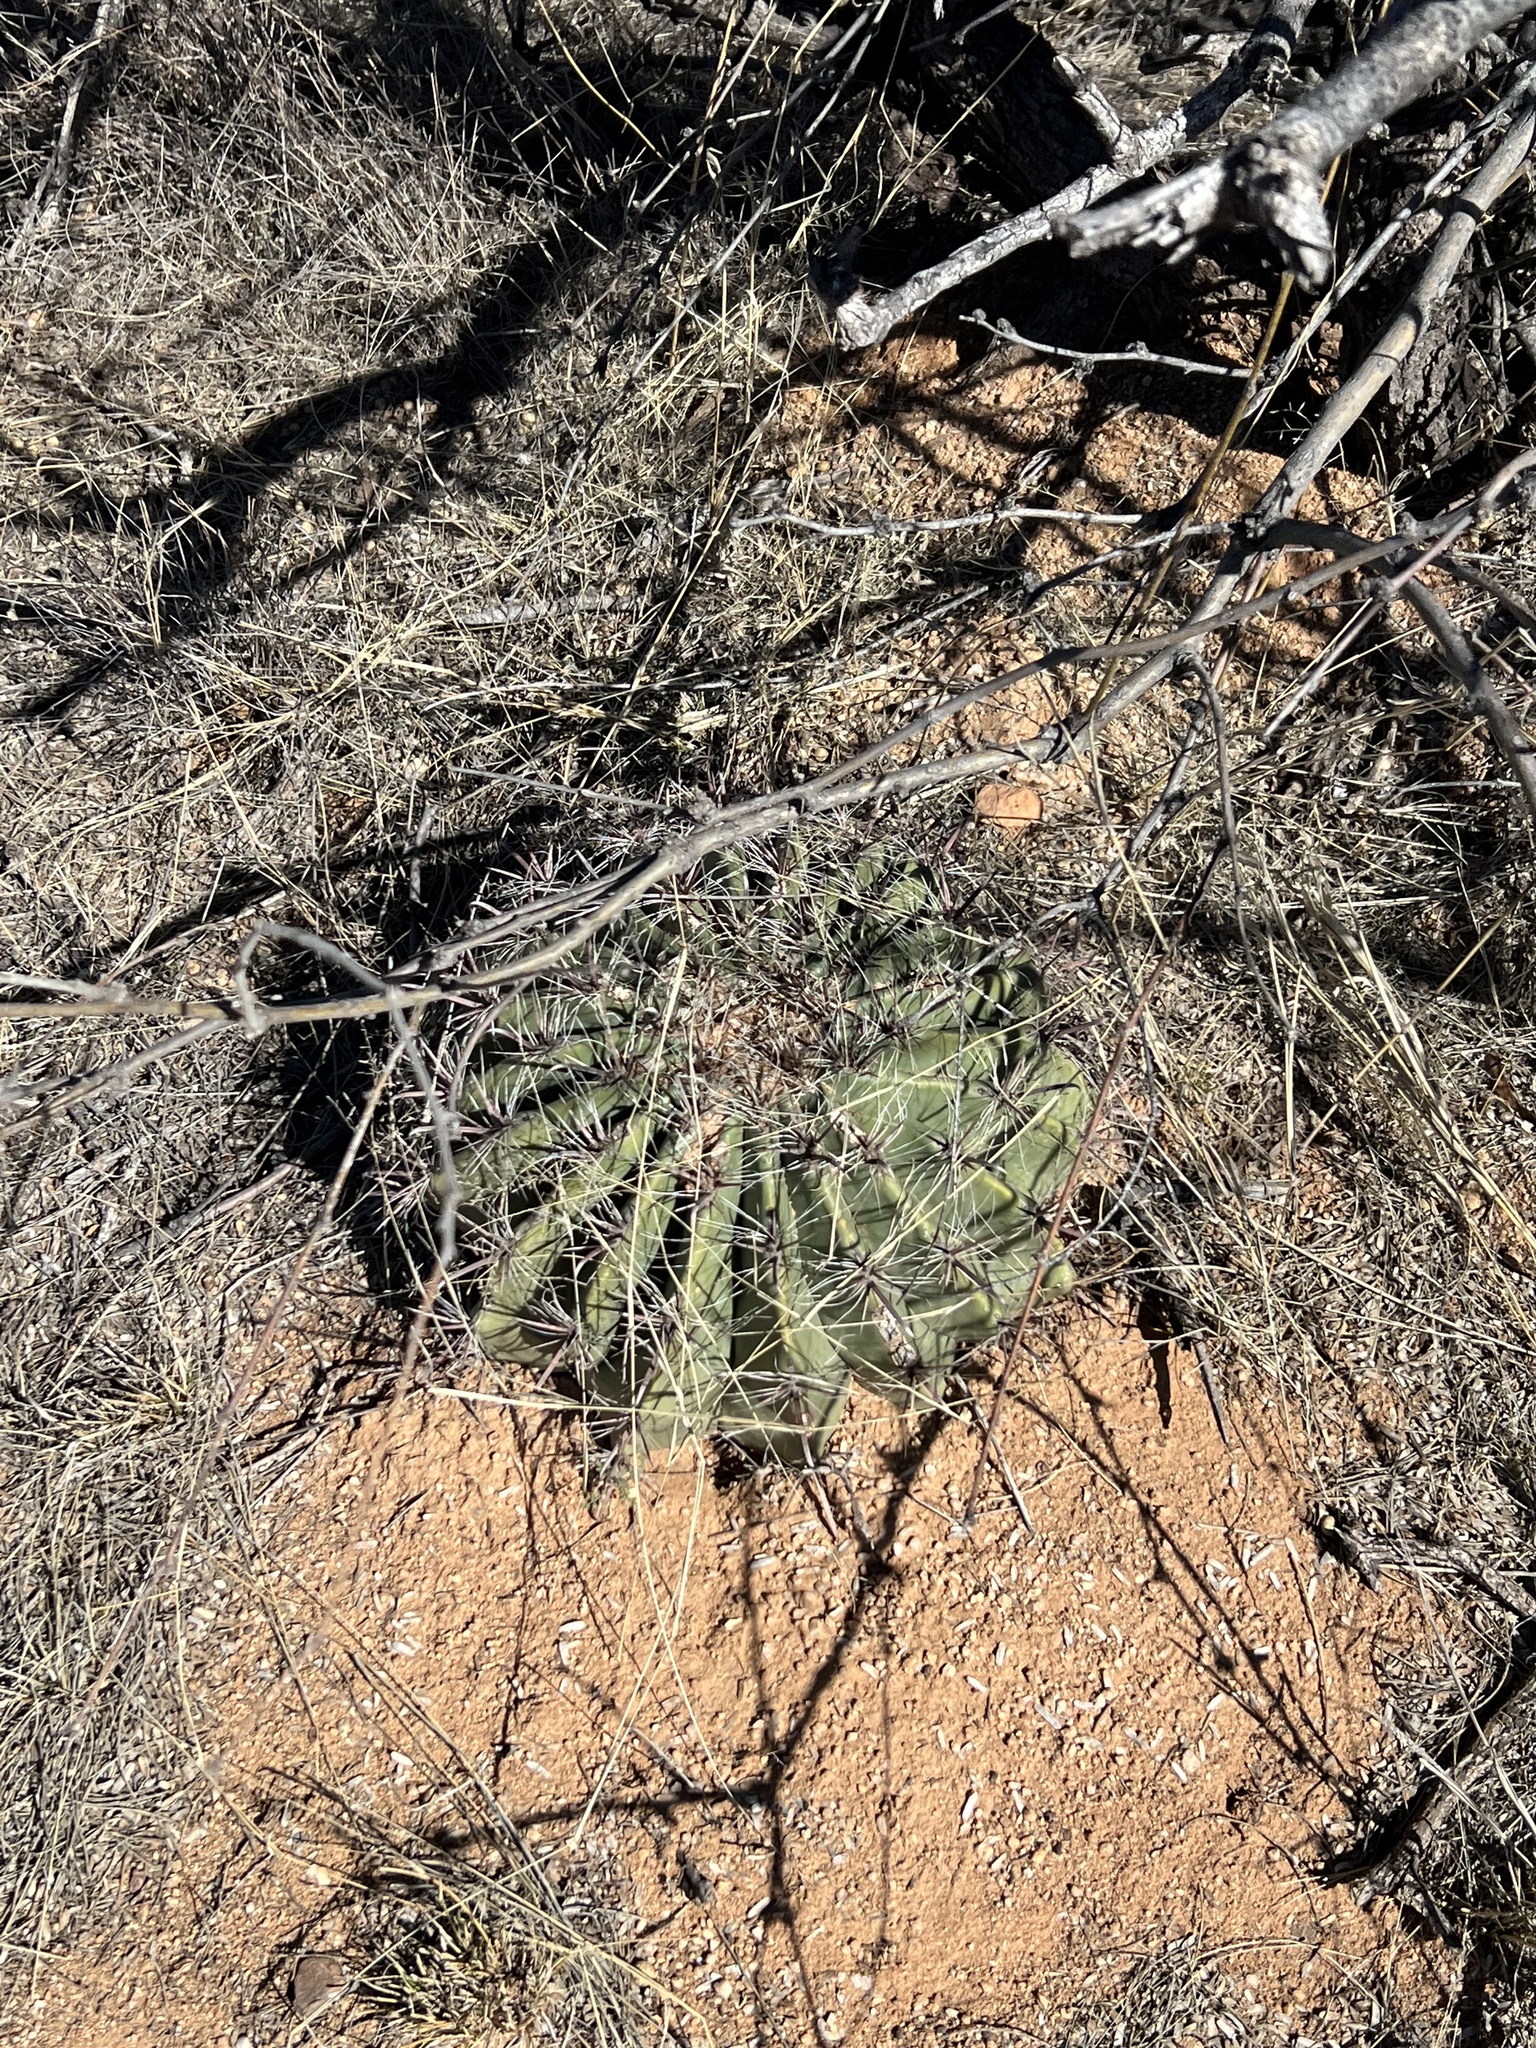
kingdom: Plantae
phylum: Tracheophyta
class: Magnoliopsida
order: Caryophyllales
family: Cactaceae
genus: Ferocactus
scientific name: Ferocactus wislizeni
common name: Candy barrel cactus
